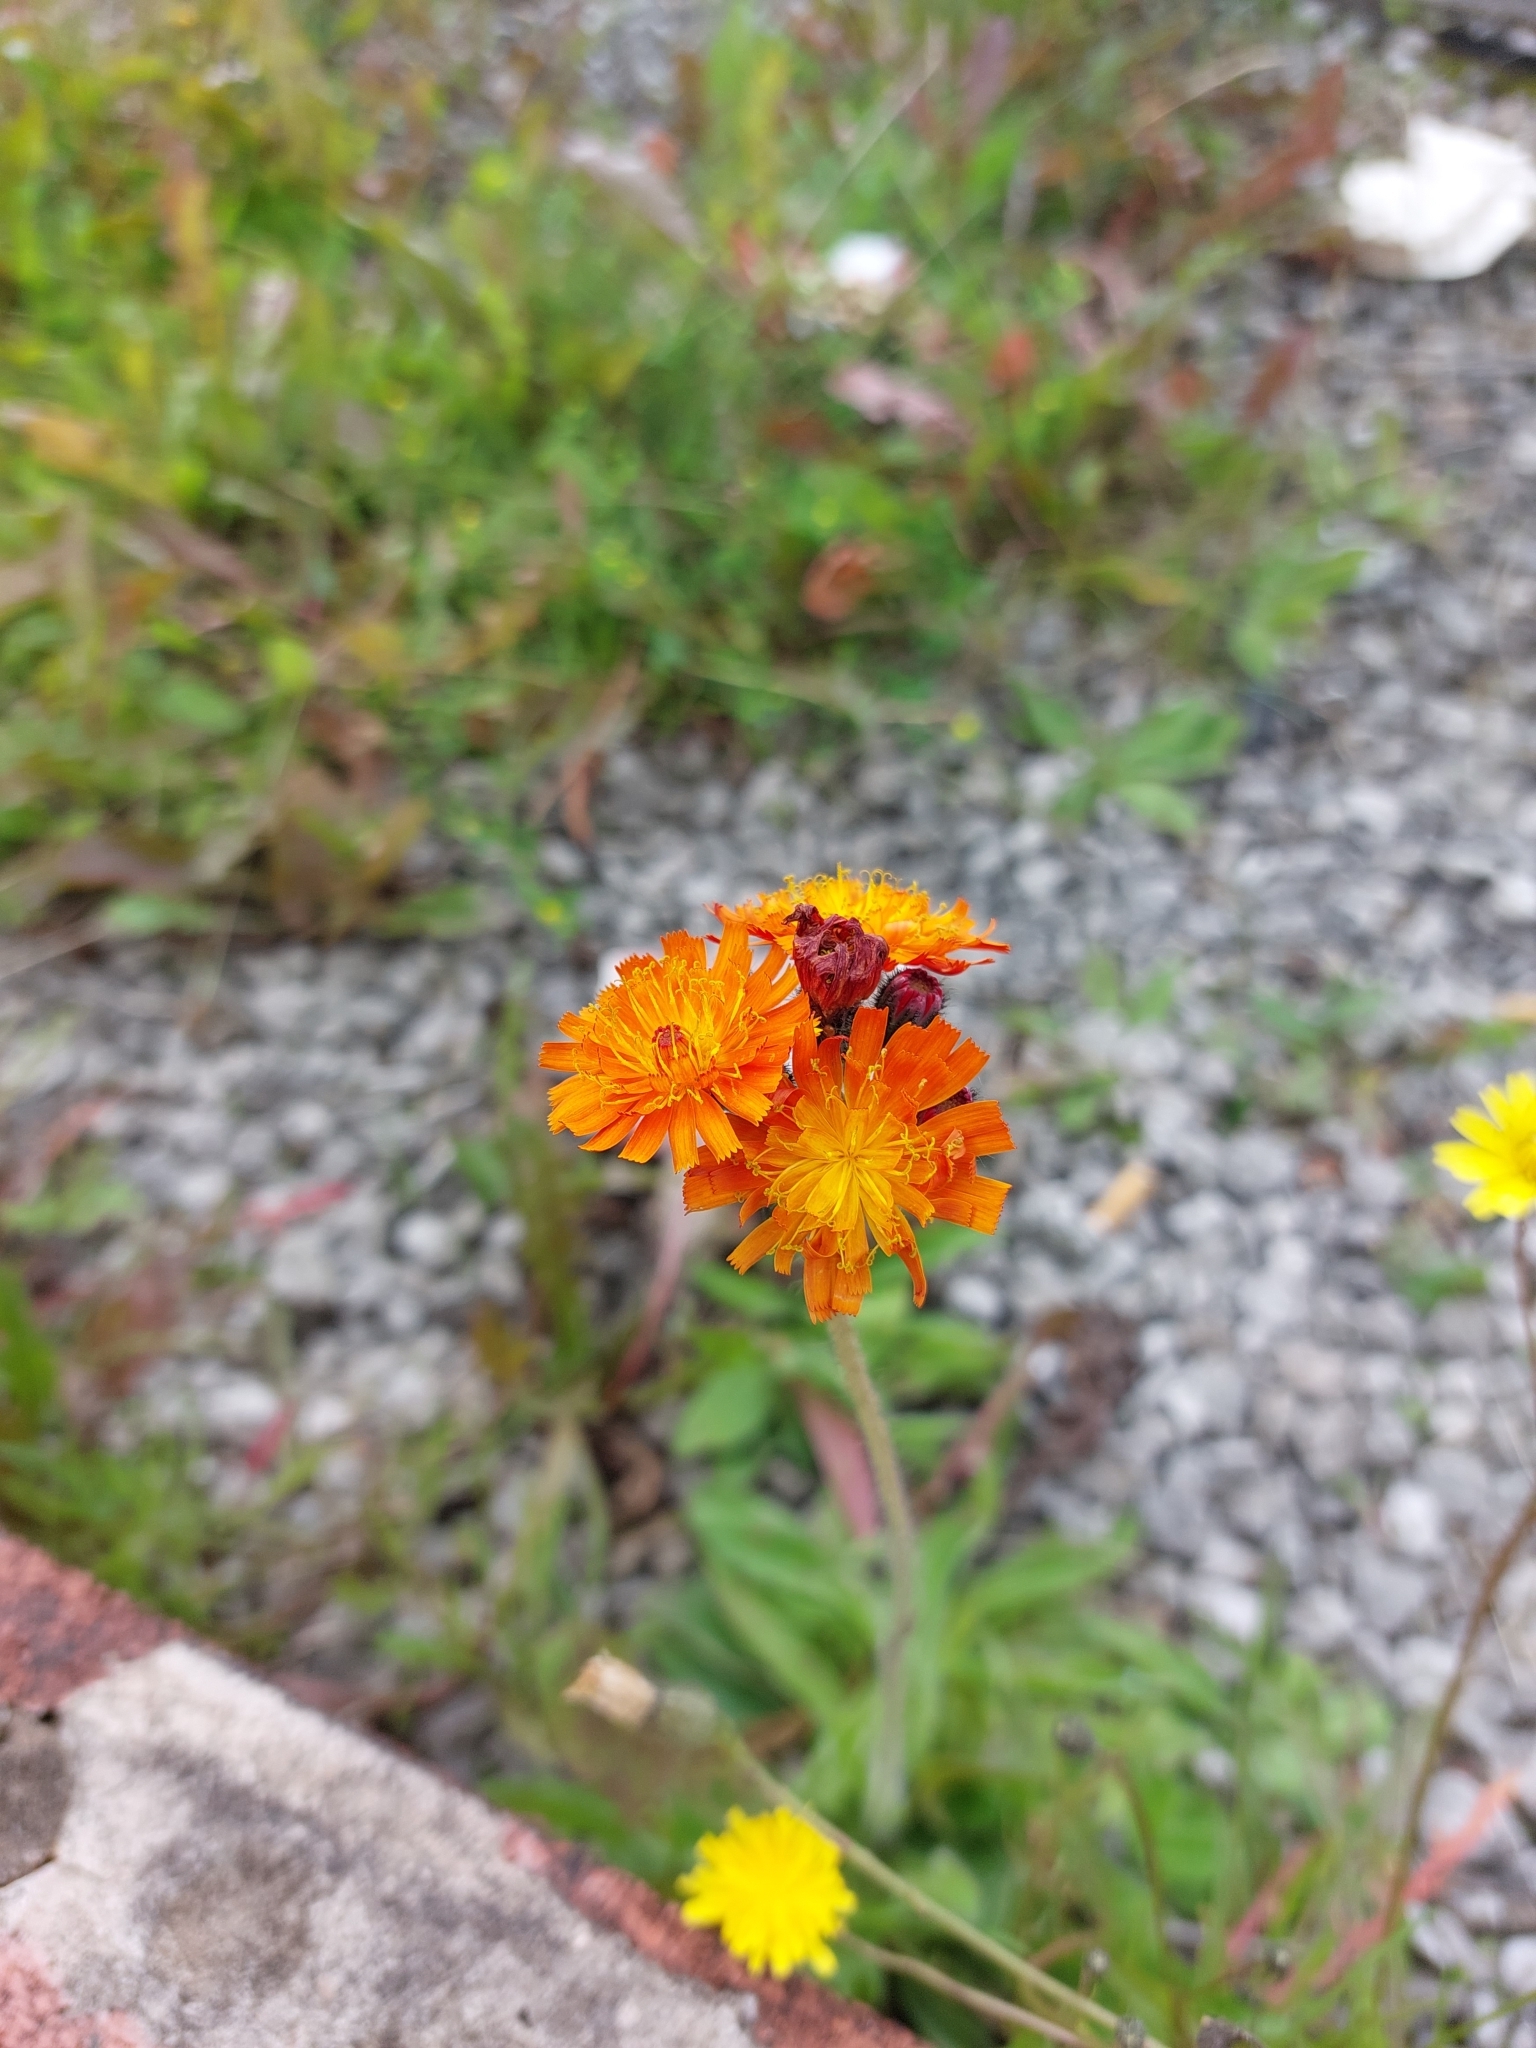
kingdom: Plantae
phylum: Tracheophyta
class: Magnoliopsida
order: Asterales
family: Asteraceae
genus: Pilosella
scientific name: Pilosella aurantiaca
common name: Fox-and-cubs
